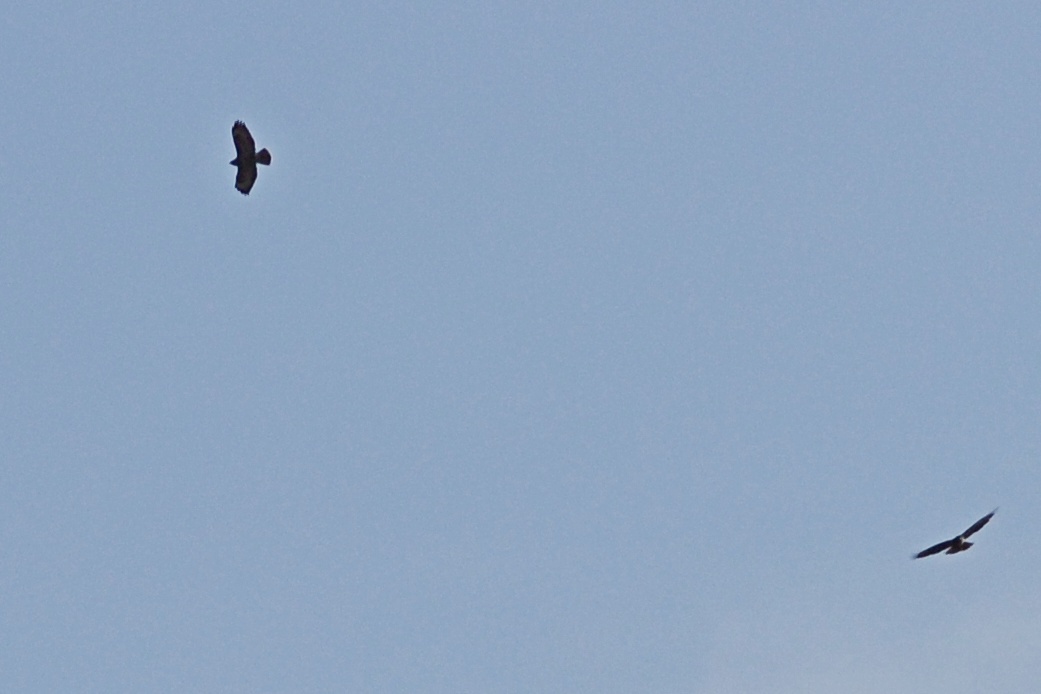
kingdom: Animalia
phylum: Chordata
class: Aves
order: Accipitriformes
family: Accipitridae
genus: Buteo
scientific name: Buteo buteo
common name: Common buzzard
